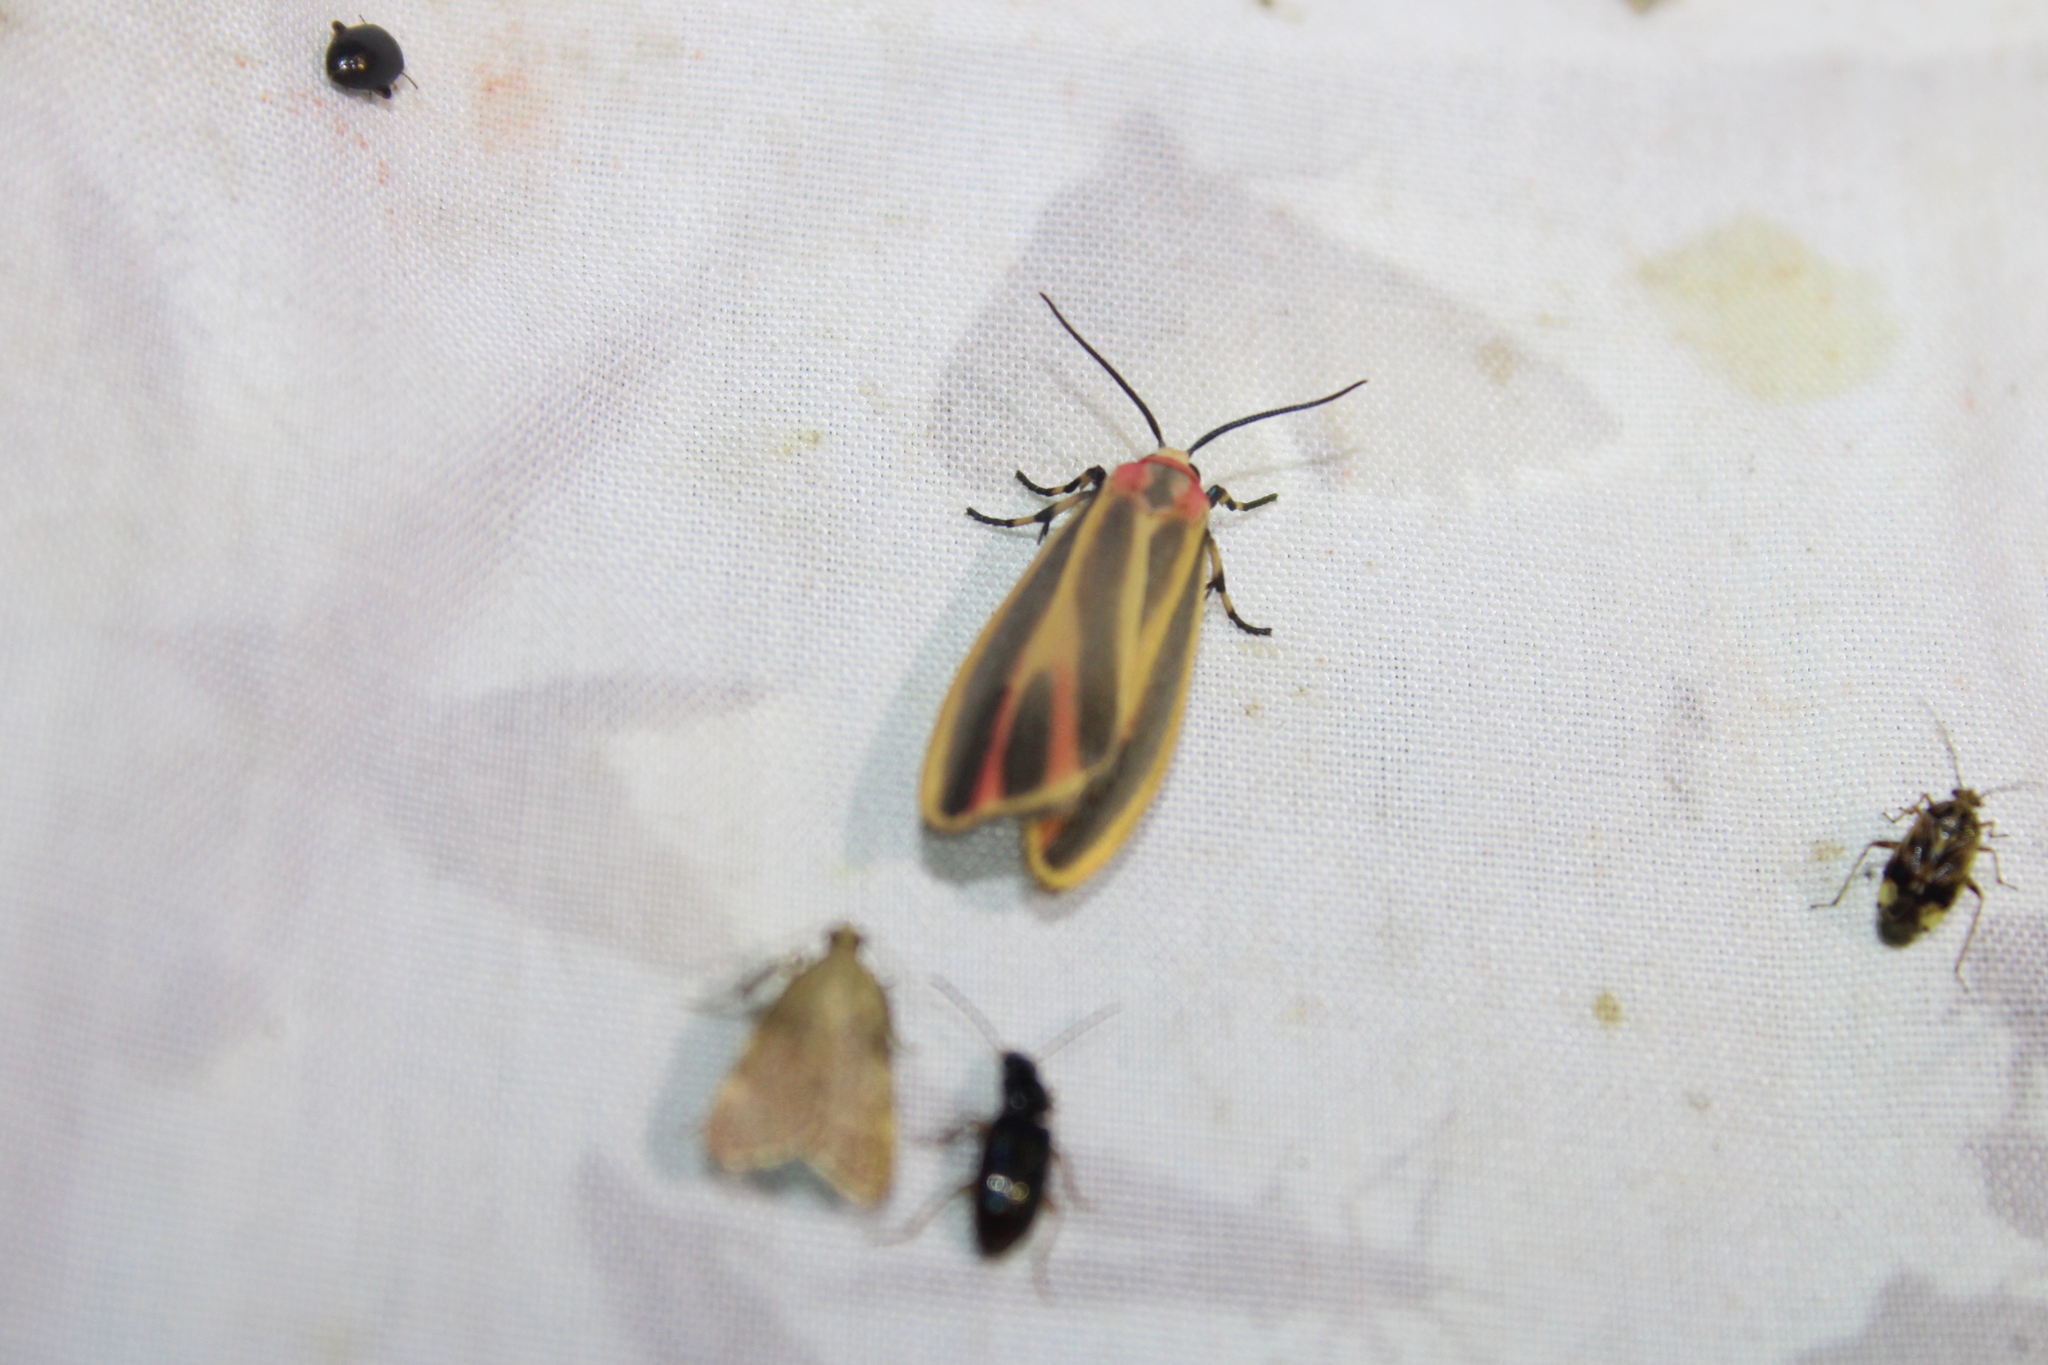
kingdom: Animalia
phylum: Arthropoda
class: Insecta
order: Lepidoptera
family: Erebidae
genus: Hypoprepia
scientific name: Hypoprepia fucosa
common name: Painted lichen moth
